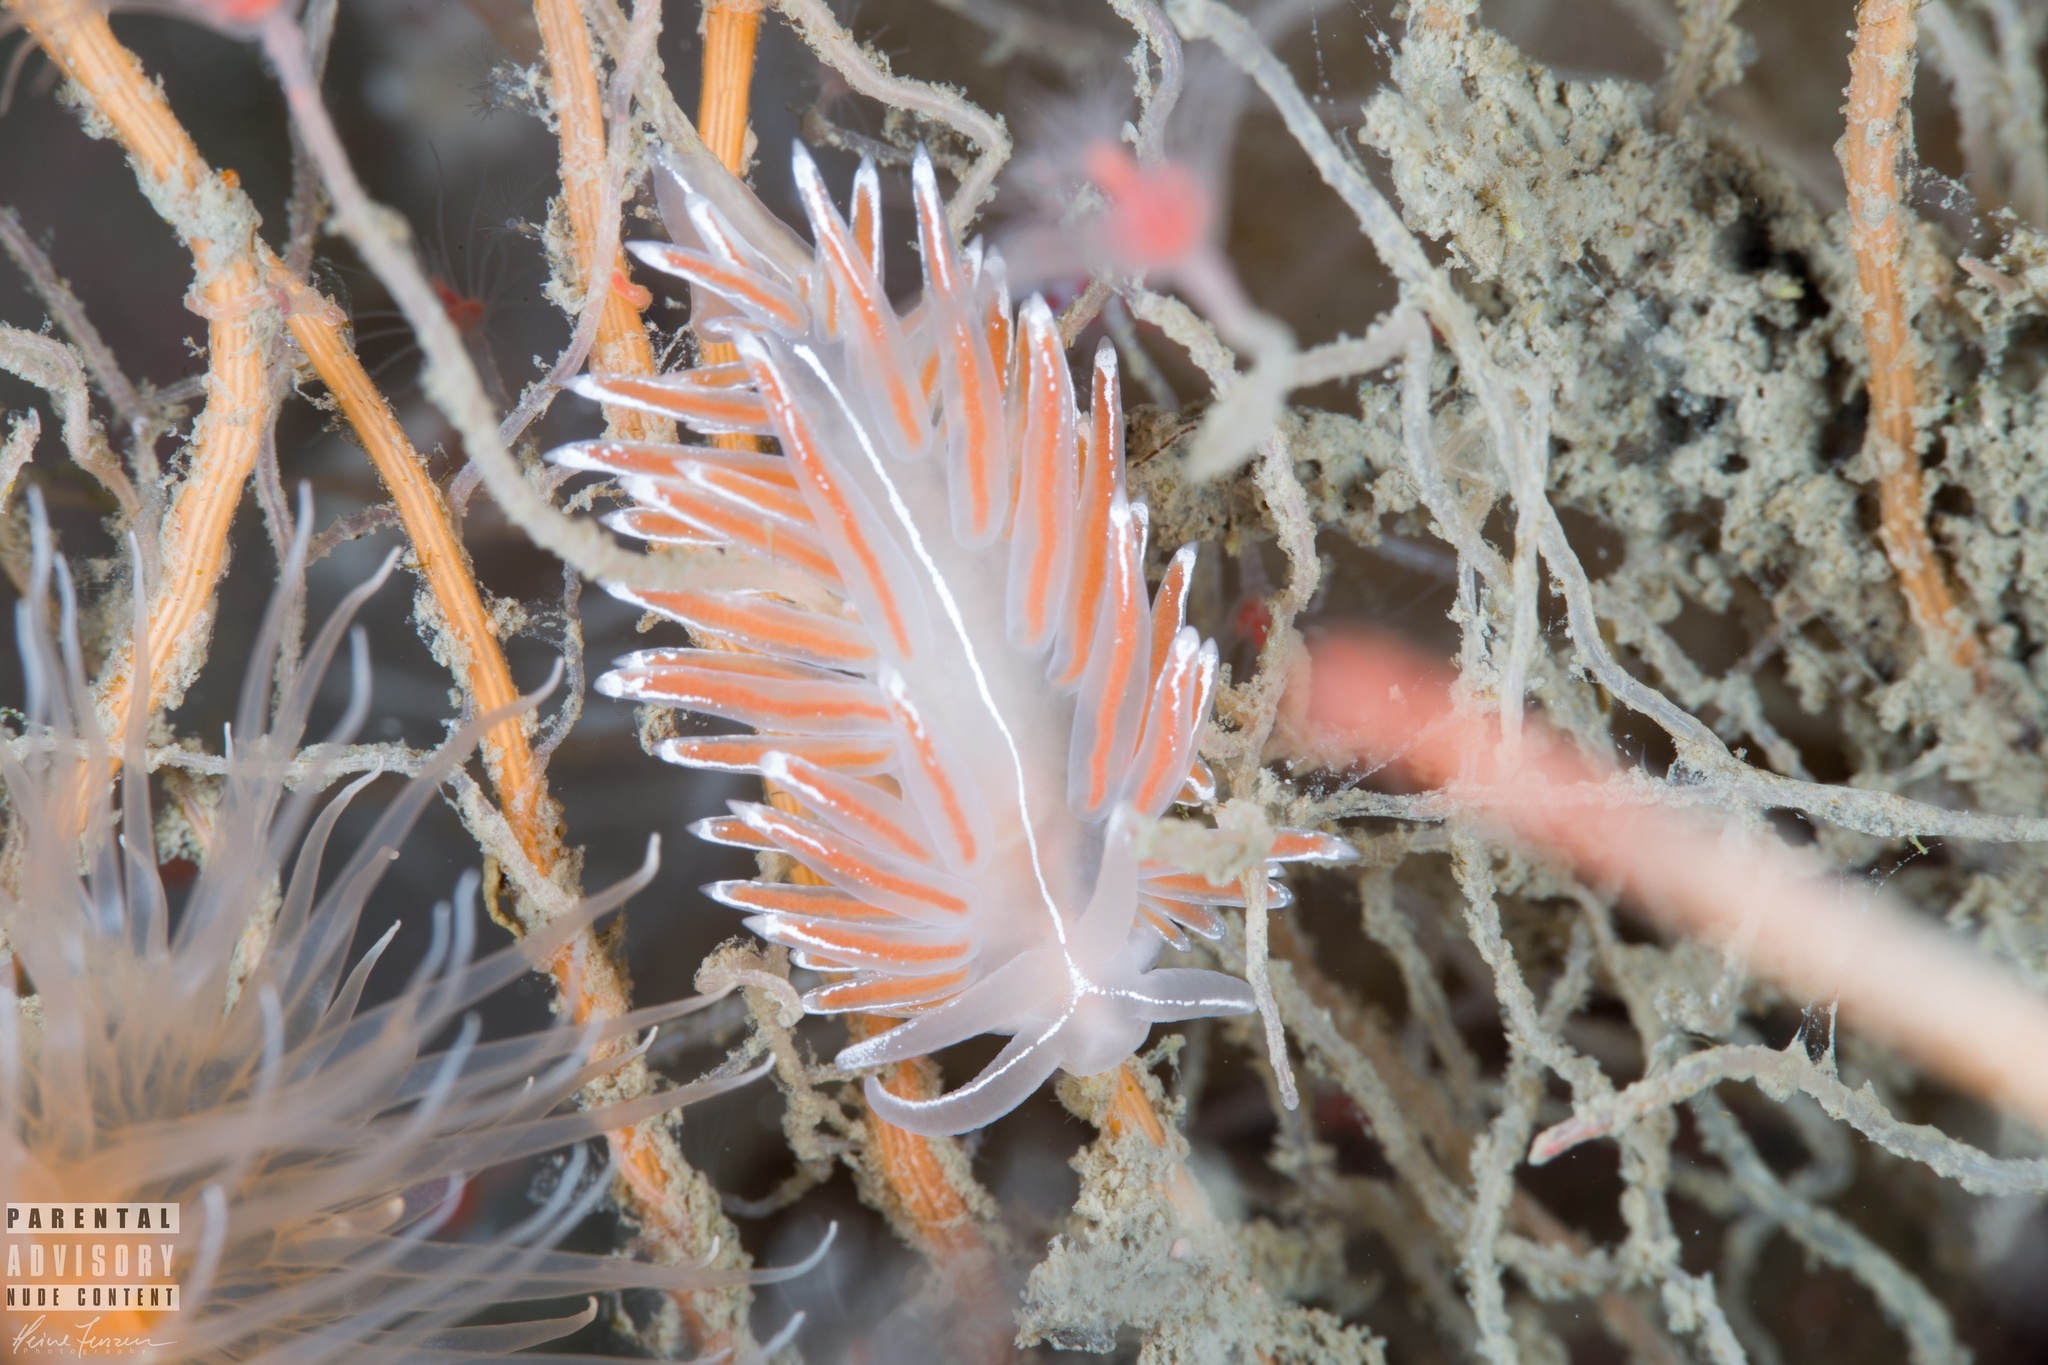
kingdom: Animalia
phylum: Mollusca
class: Gastropoda
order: Nudibranchia
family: Coryphellidae
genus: Coryphella
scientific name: Coryphella lineata
